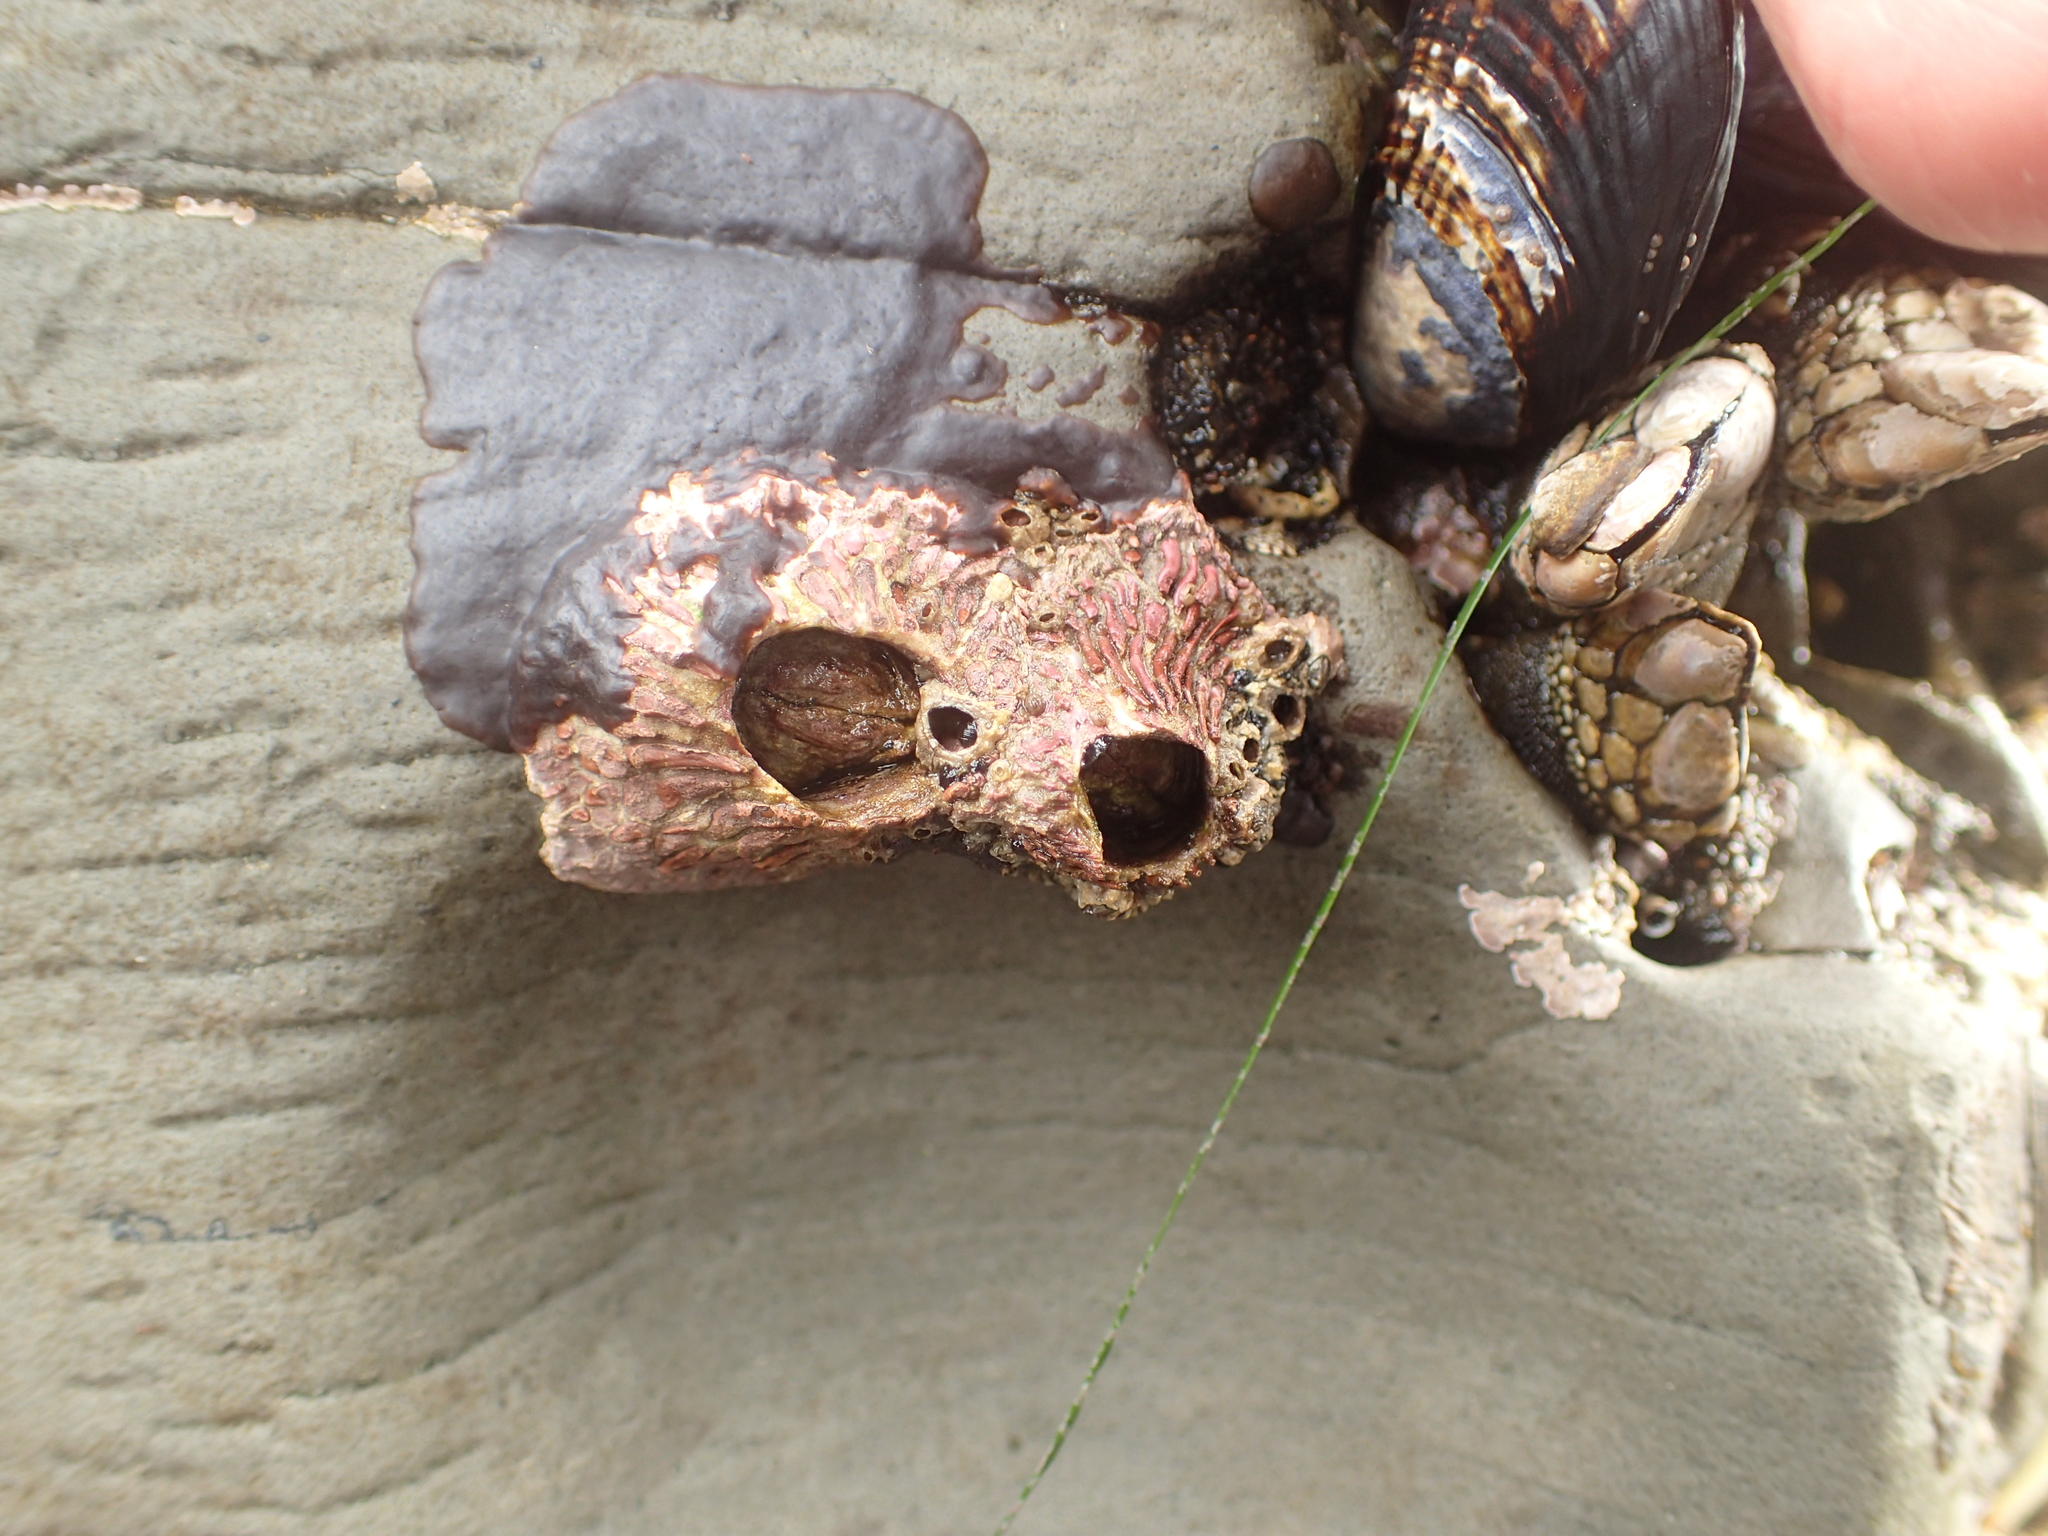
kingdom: Animalia
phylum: Arthropoda
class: Maxillopoda
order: Sessilia
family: Tetraclitidae
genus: Tetraclita
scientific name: Tetraclita rubescens
